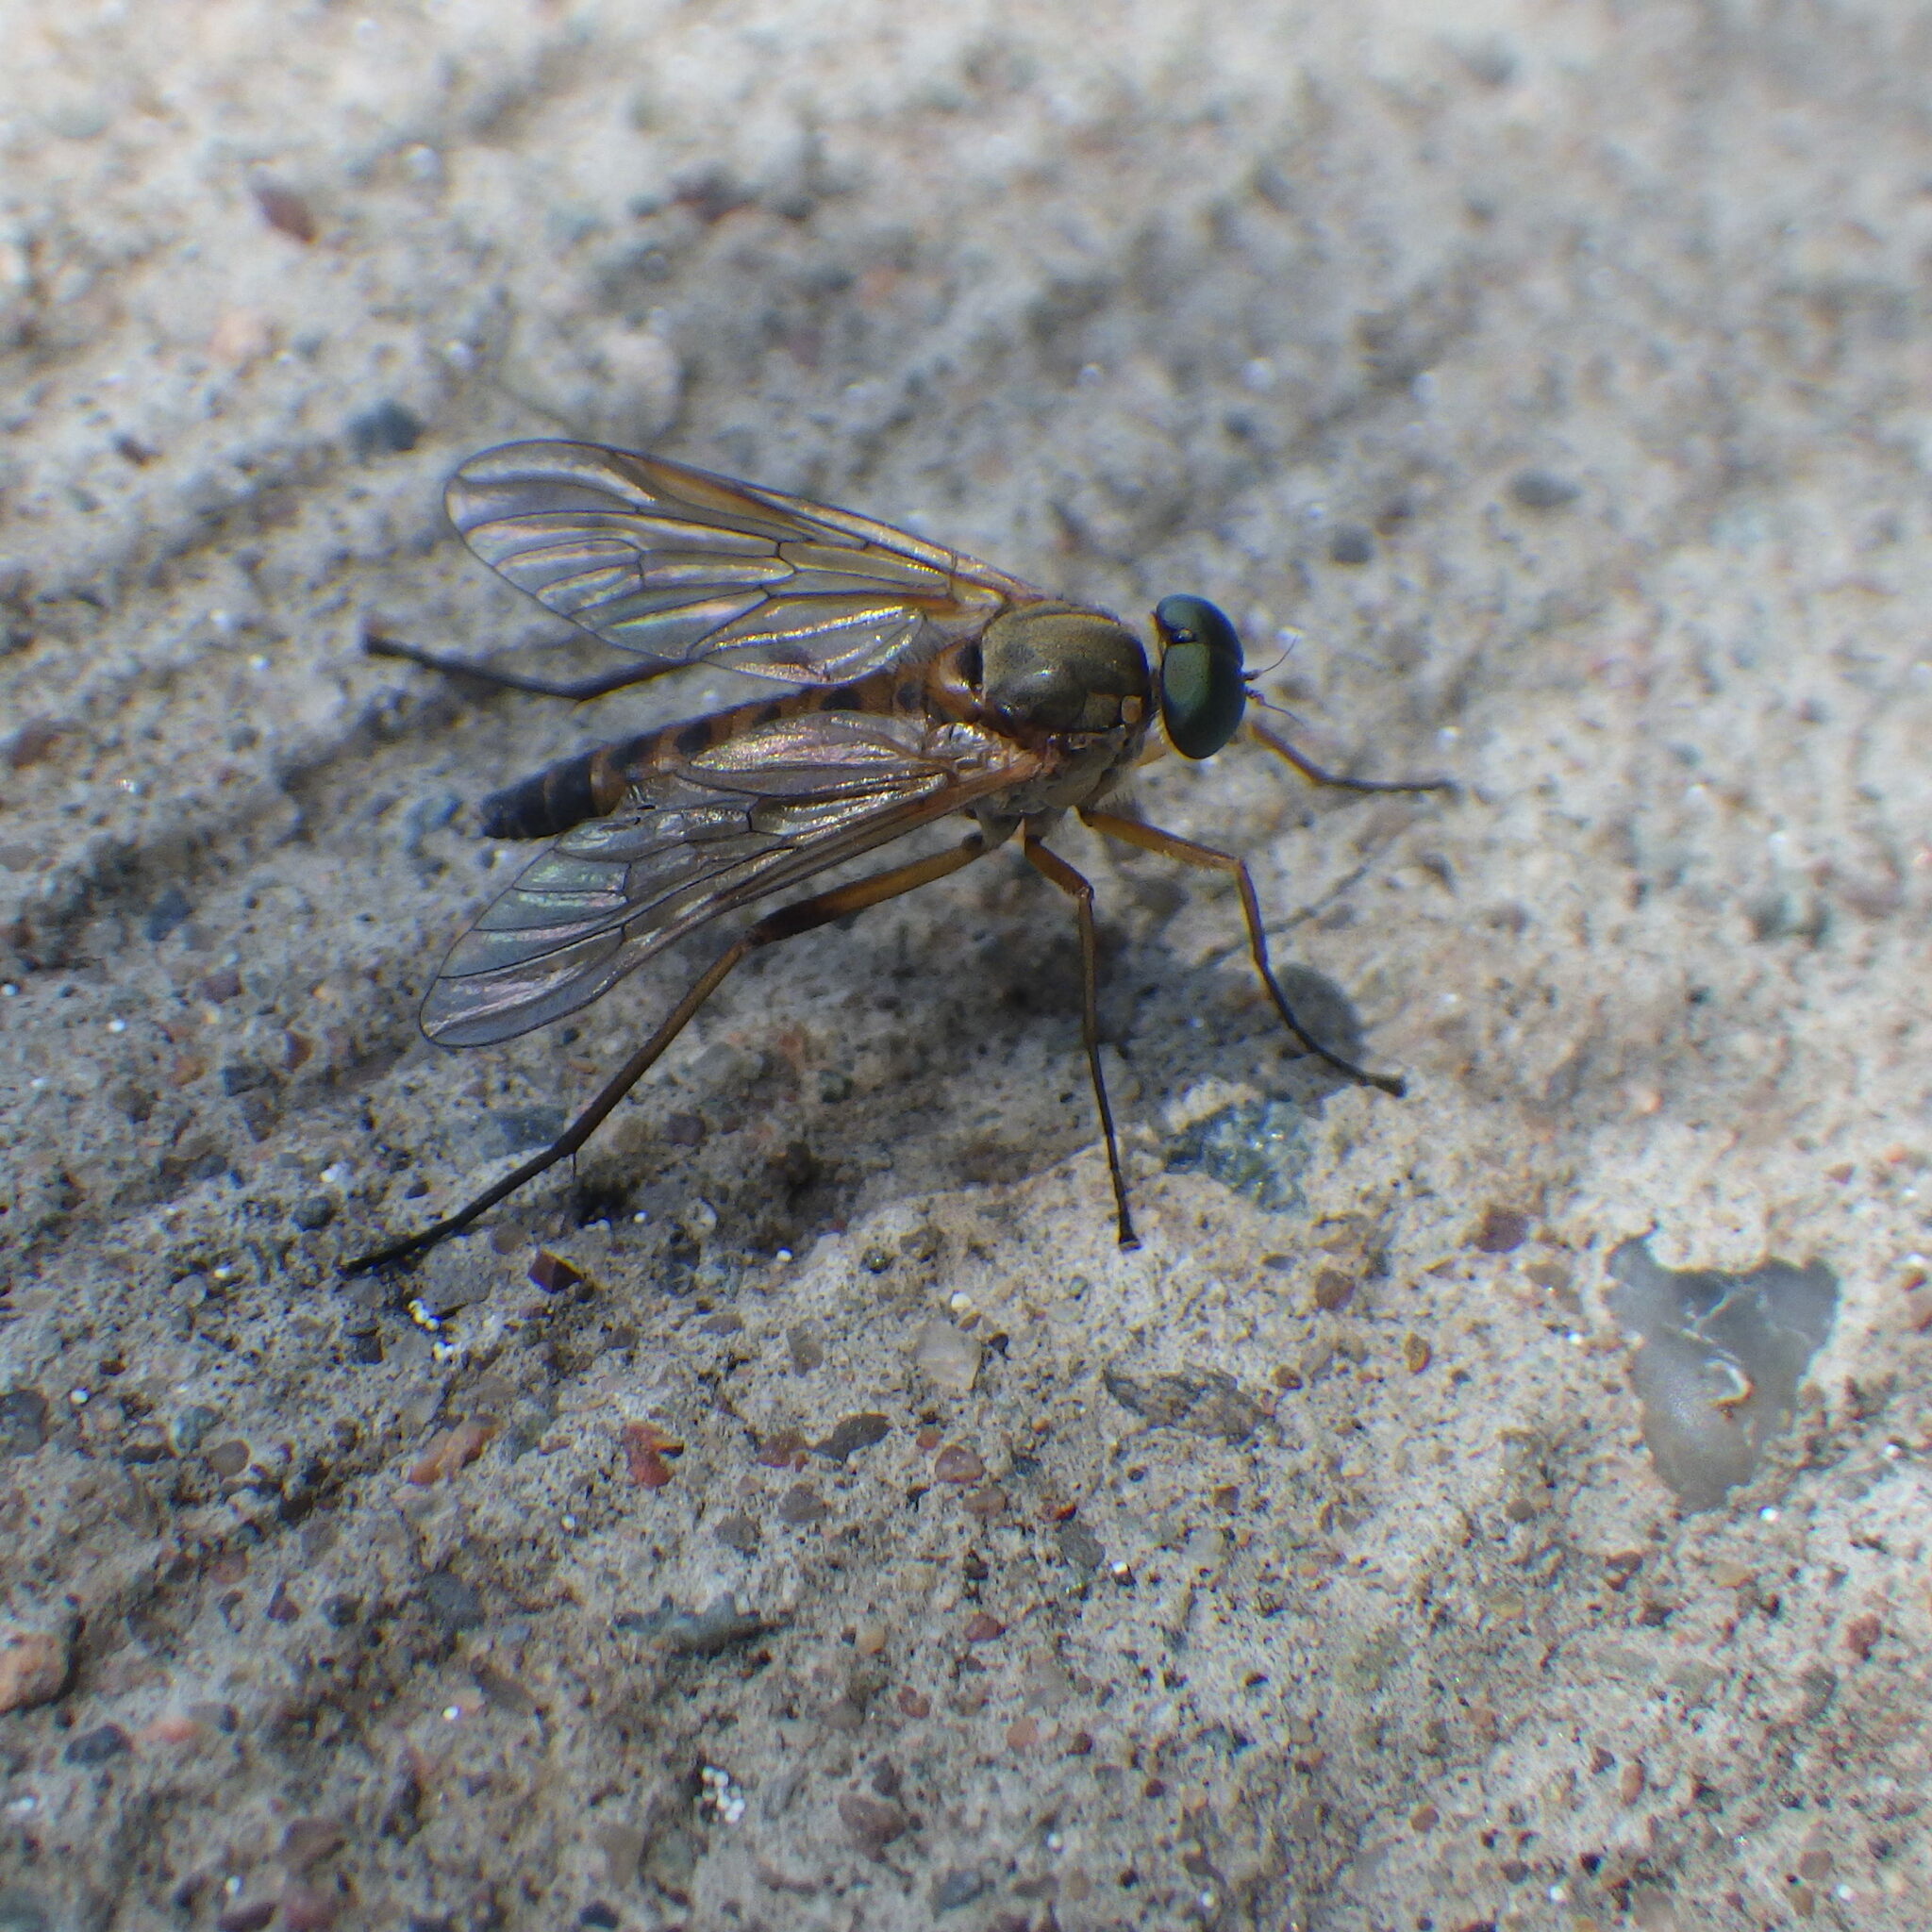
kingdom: Animalia
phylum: Arthropoda
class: Insecta
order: Diptera
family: Rhagionidae
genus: Rhagio
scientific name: Rhagio tringaria
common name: Marsh snipefly
